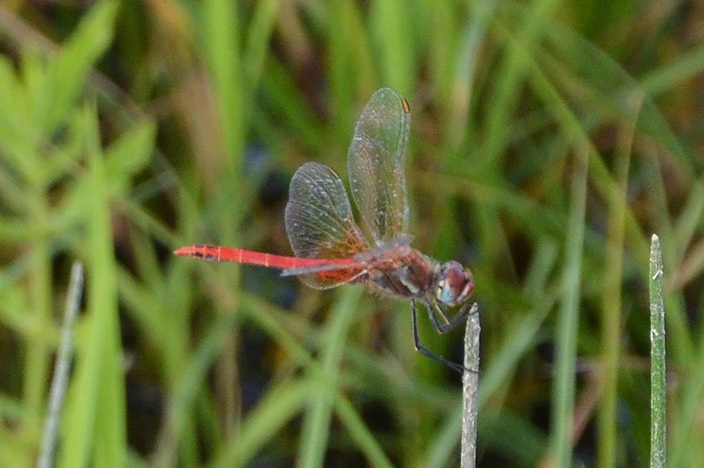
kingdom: Animalia
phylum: Arthropoda
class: Insecta
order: Odonata
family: Libellulidae
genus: Sympetrum
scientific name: Sympetrum fonscolombii
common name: Red-veined darter
